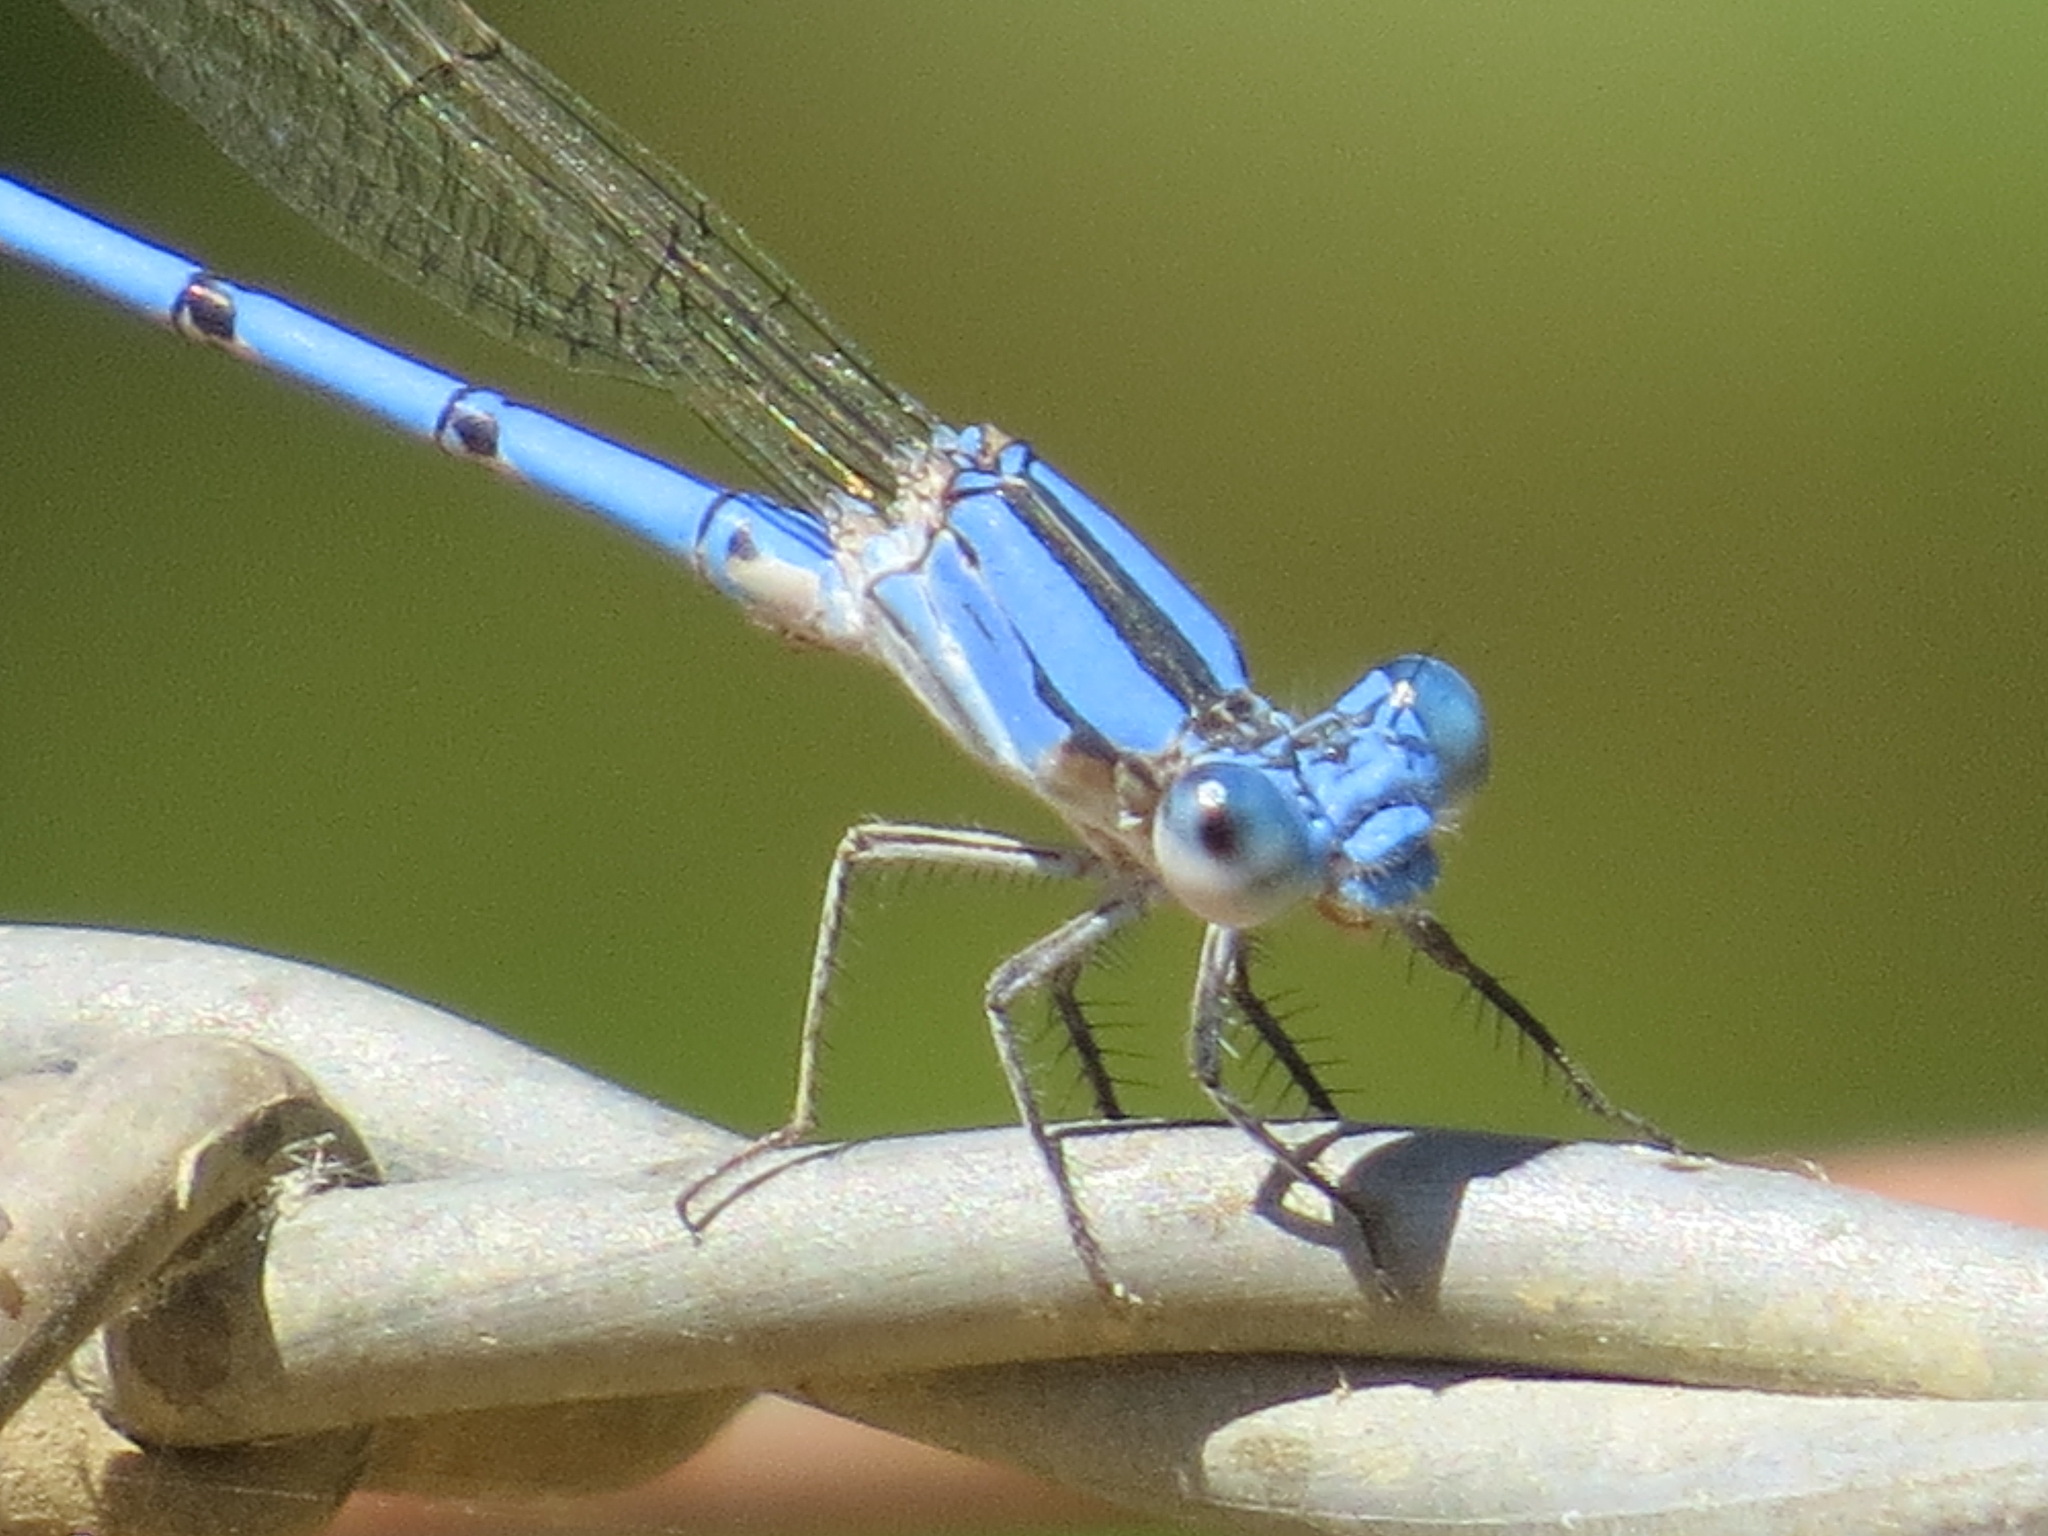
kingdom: Animalia
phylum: Arthropoda
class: Insecta
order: Odonata
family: Coenagrionidae
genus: Argia
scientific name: Argia agrioides
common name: California dancer
